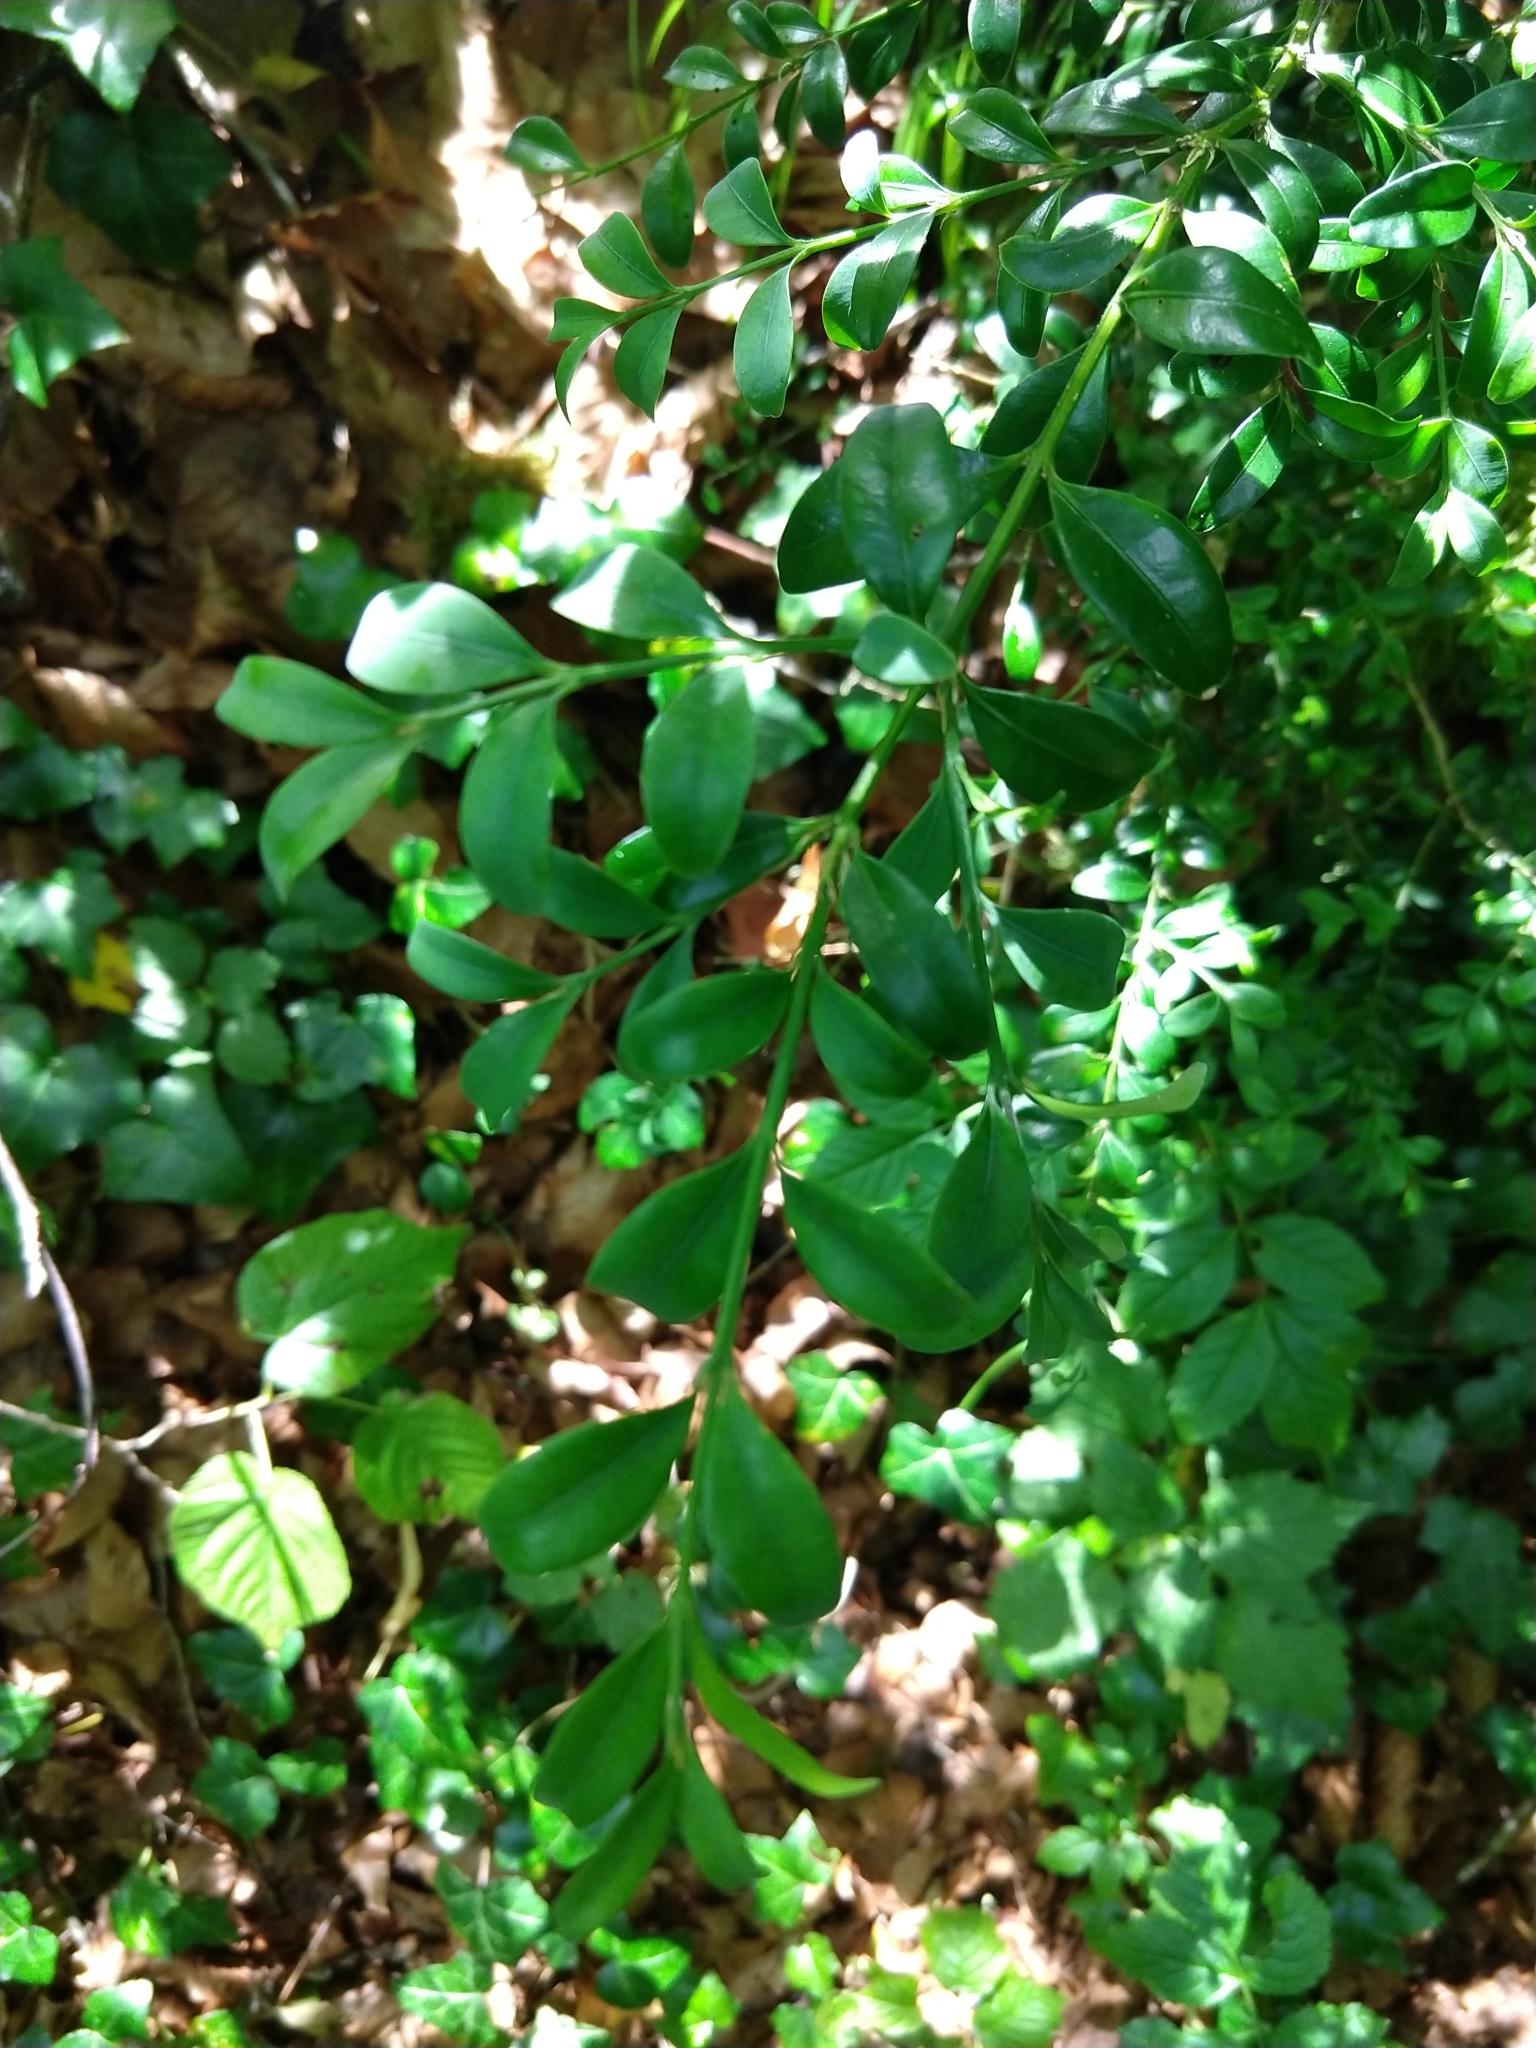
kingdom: Plantae
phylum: Tracheophyta
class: Magnoliopsida
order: Buxales
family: Buxaceae
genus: Buxus
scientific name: Buxus sempervirens
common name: Box
